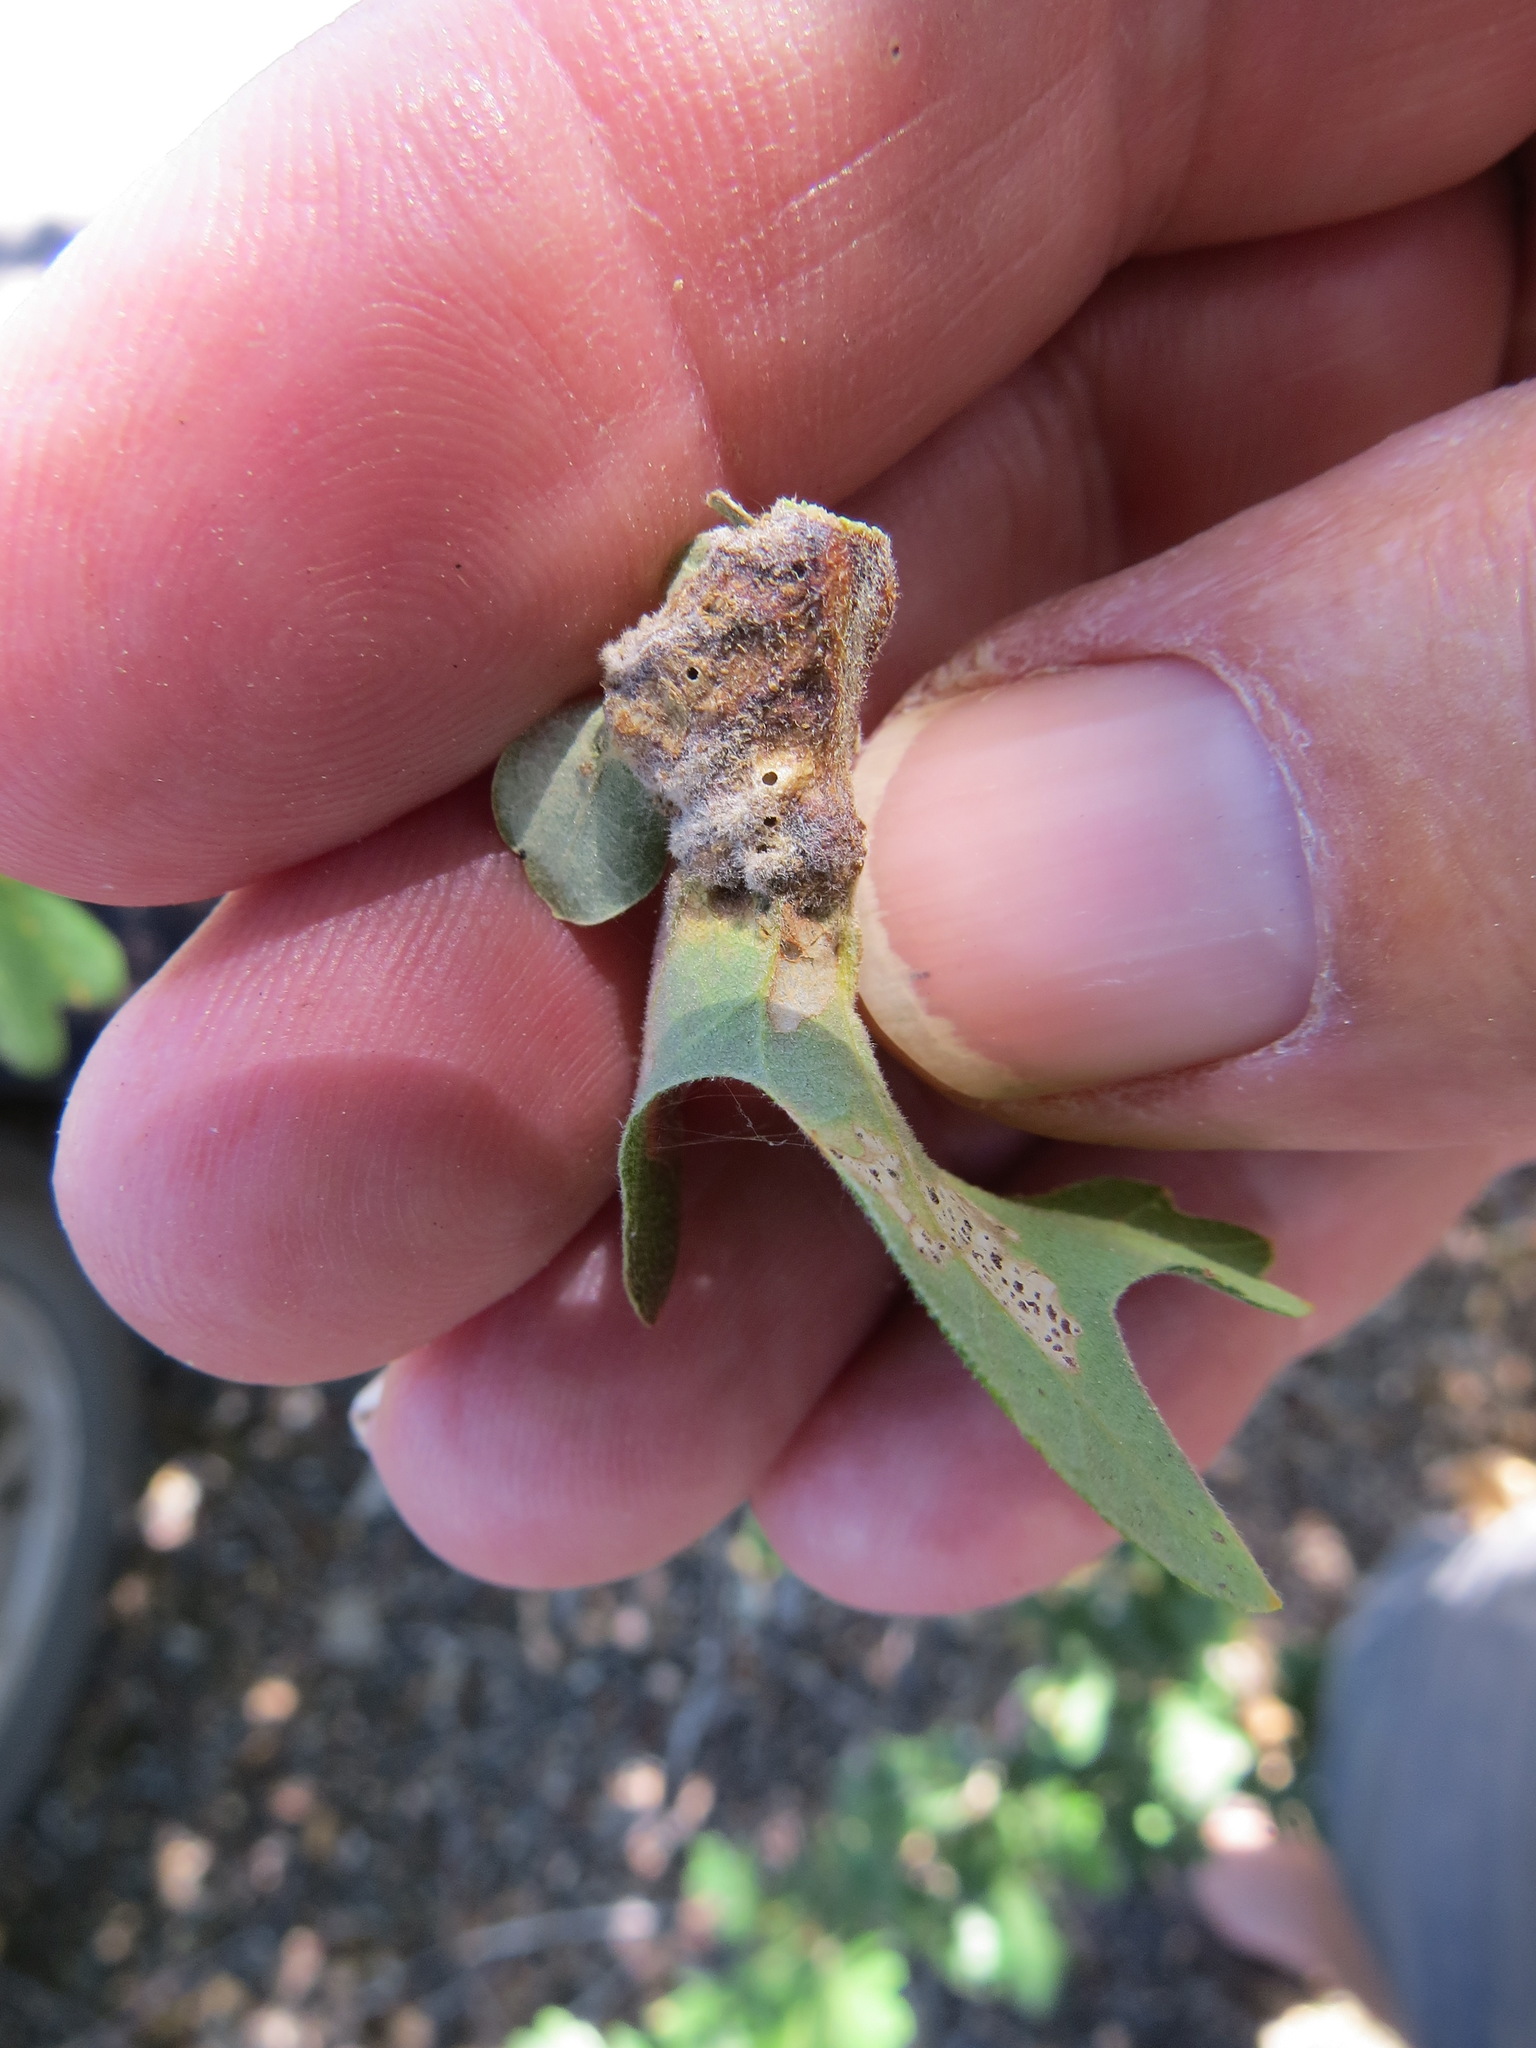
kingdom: Animalia
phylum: Arthropoda
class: Insecta
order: Hymenoptera
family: Cynipidae
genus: Neuroterus
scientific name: Neuroterus
